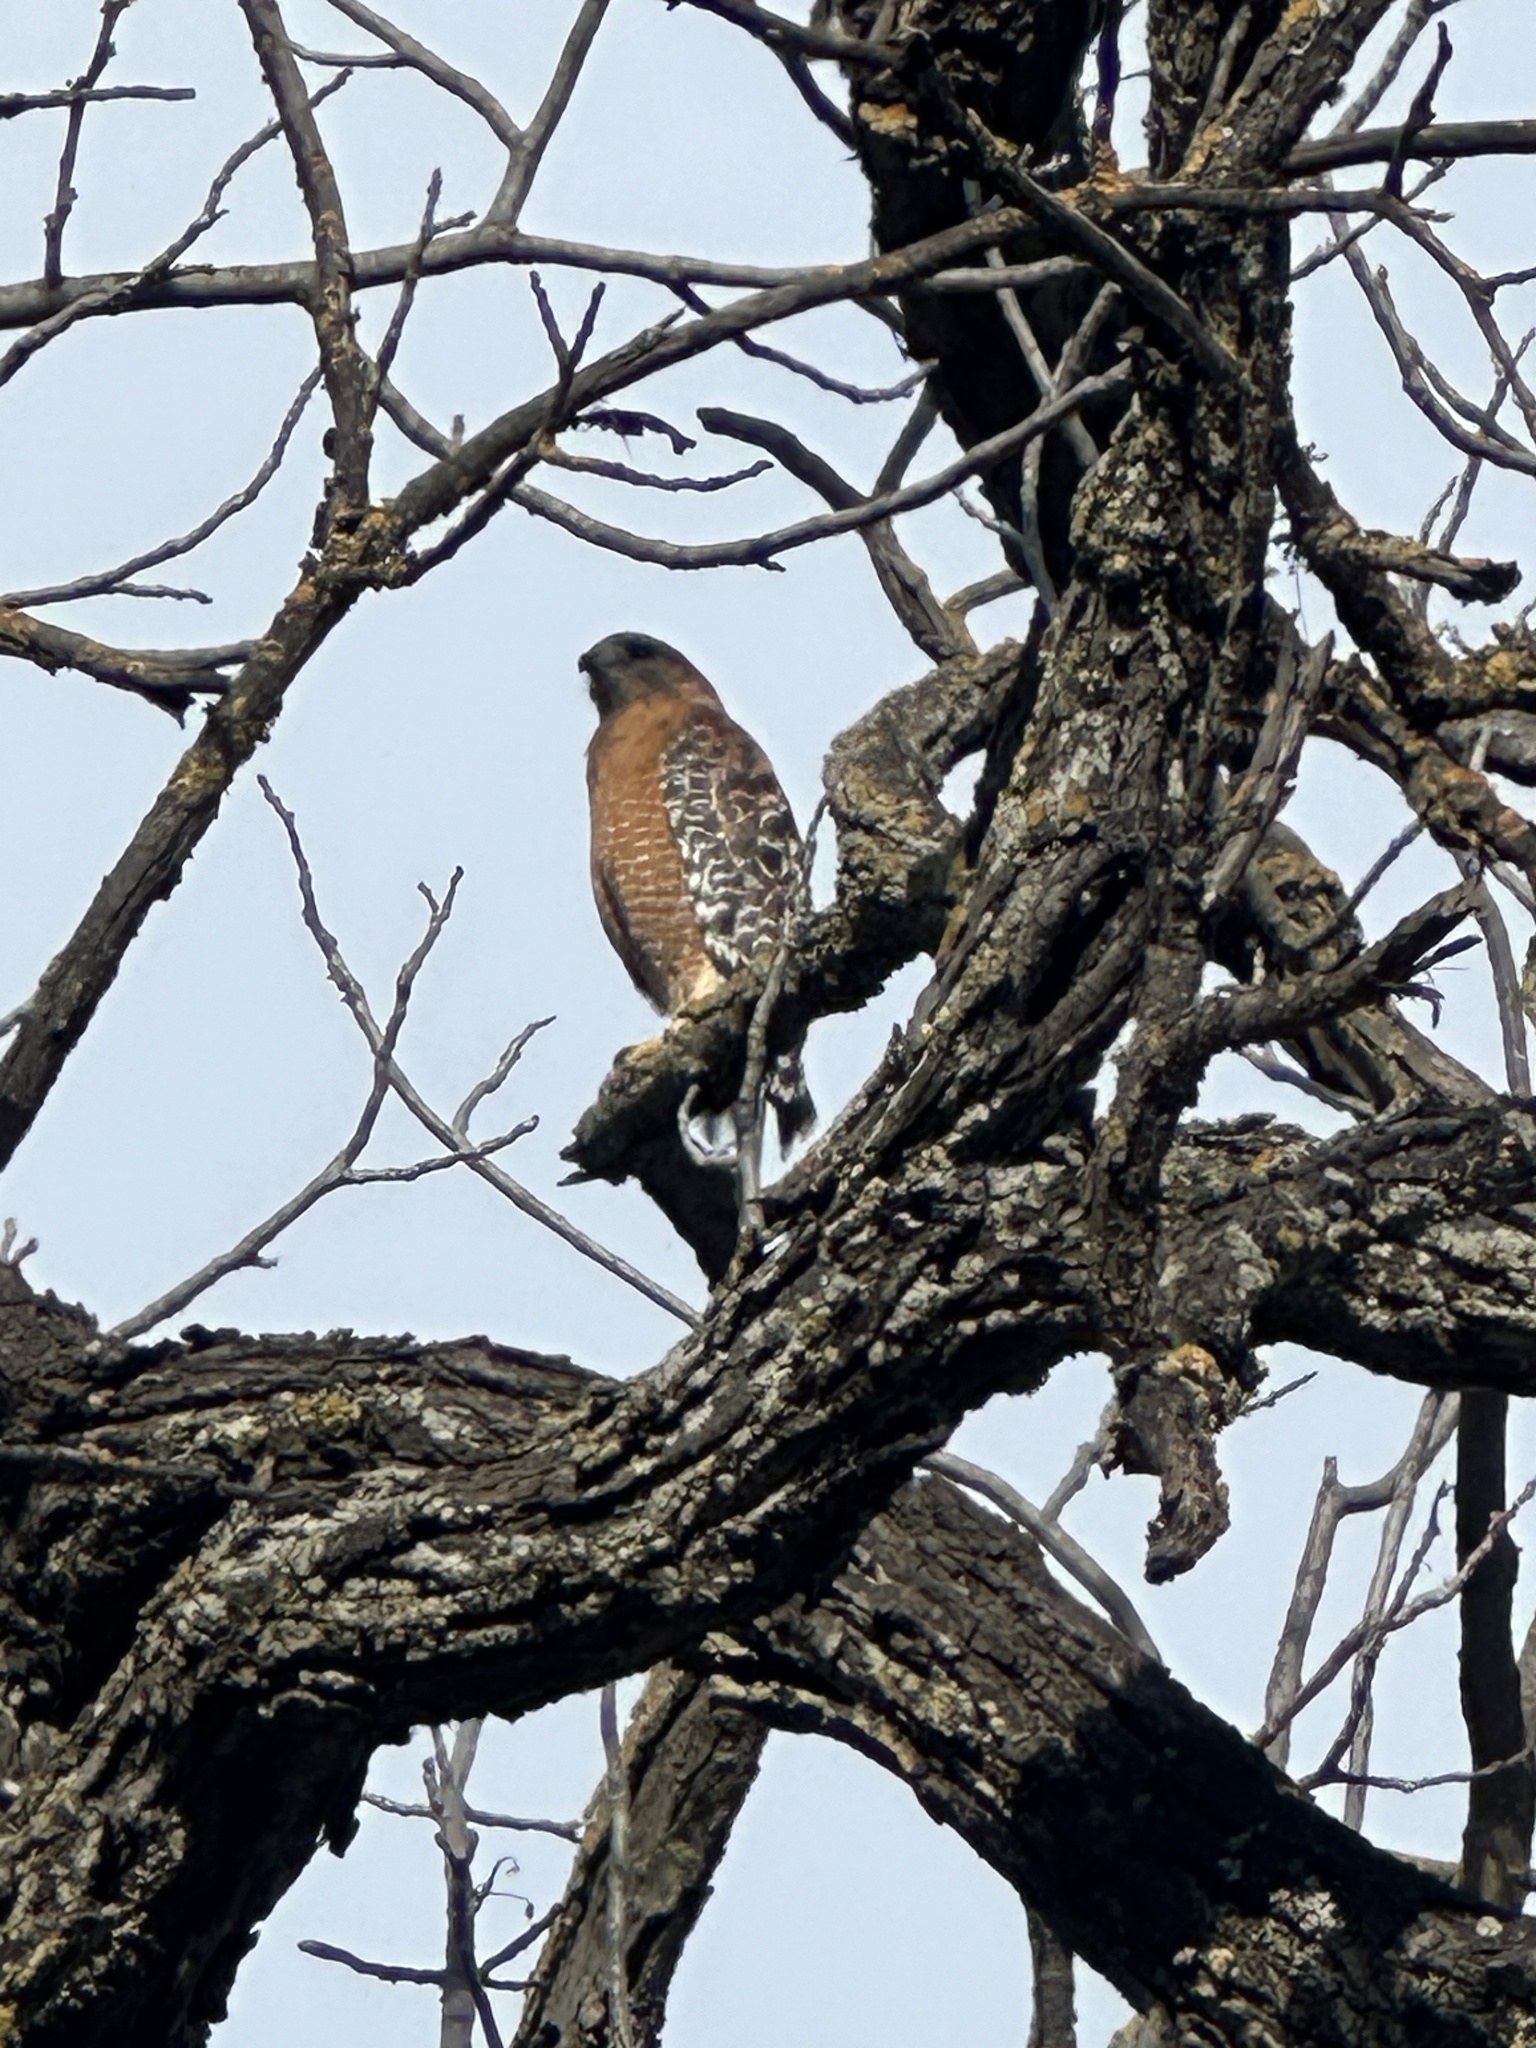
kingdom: Animalia
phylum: Chordata
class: Aves
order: Accipitriformes
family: Accipitridae
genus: Buteo
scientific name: Buteo lineatus
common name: Red-shouldered hawk
